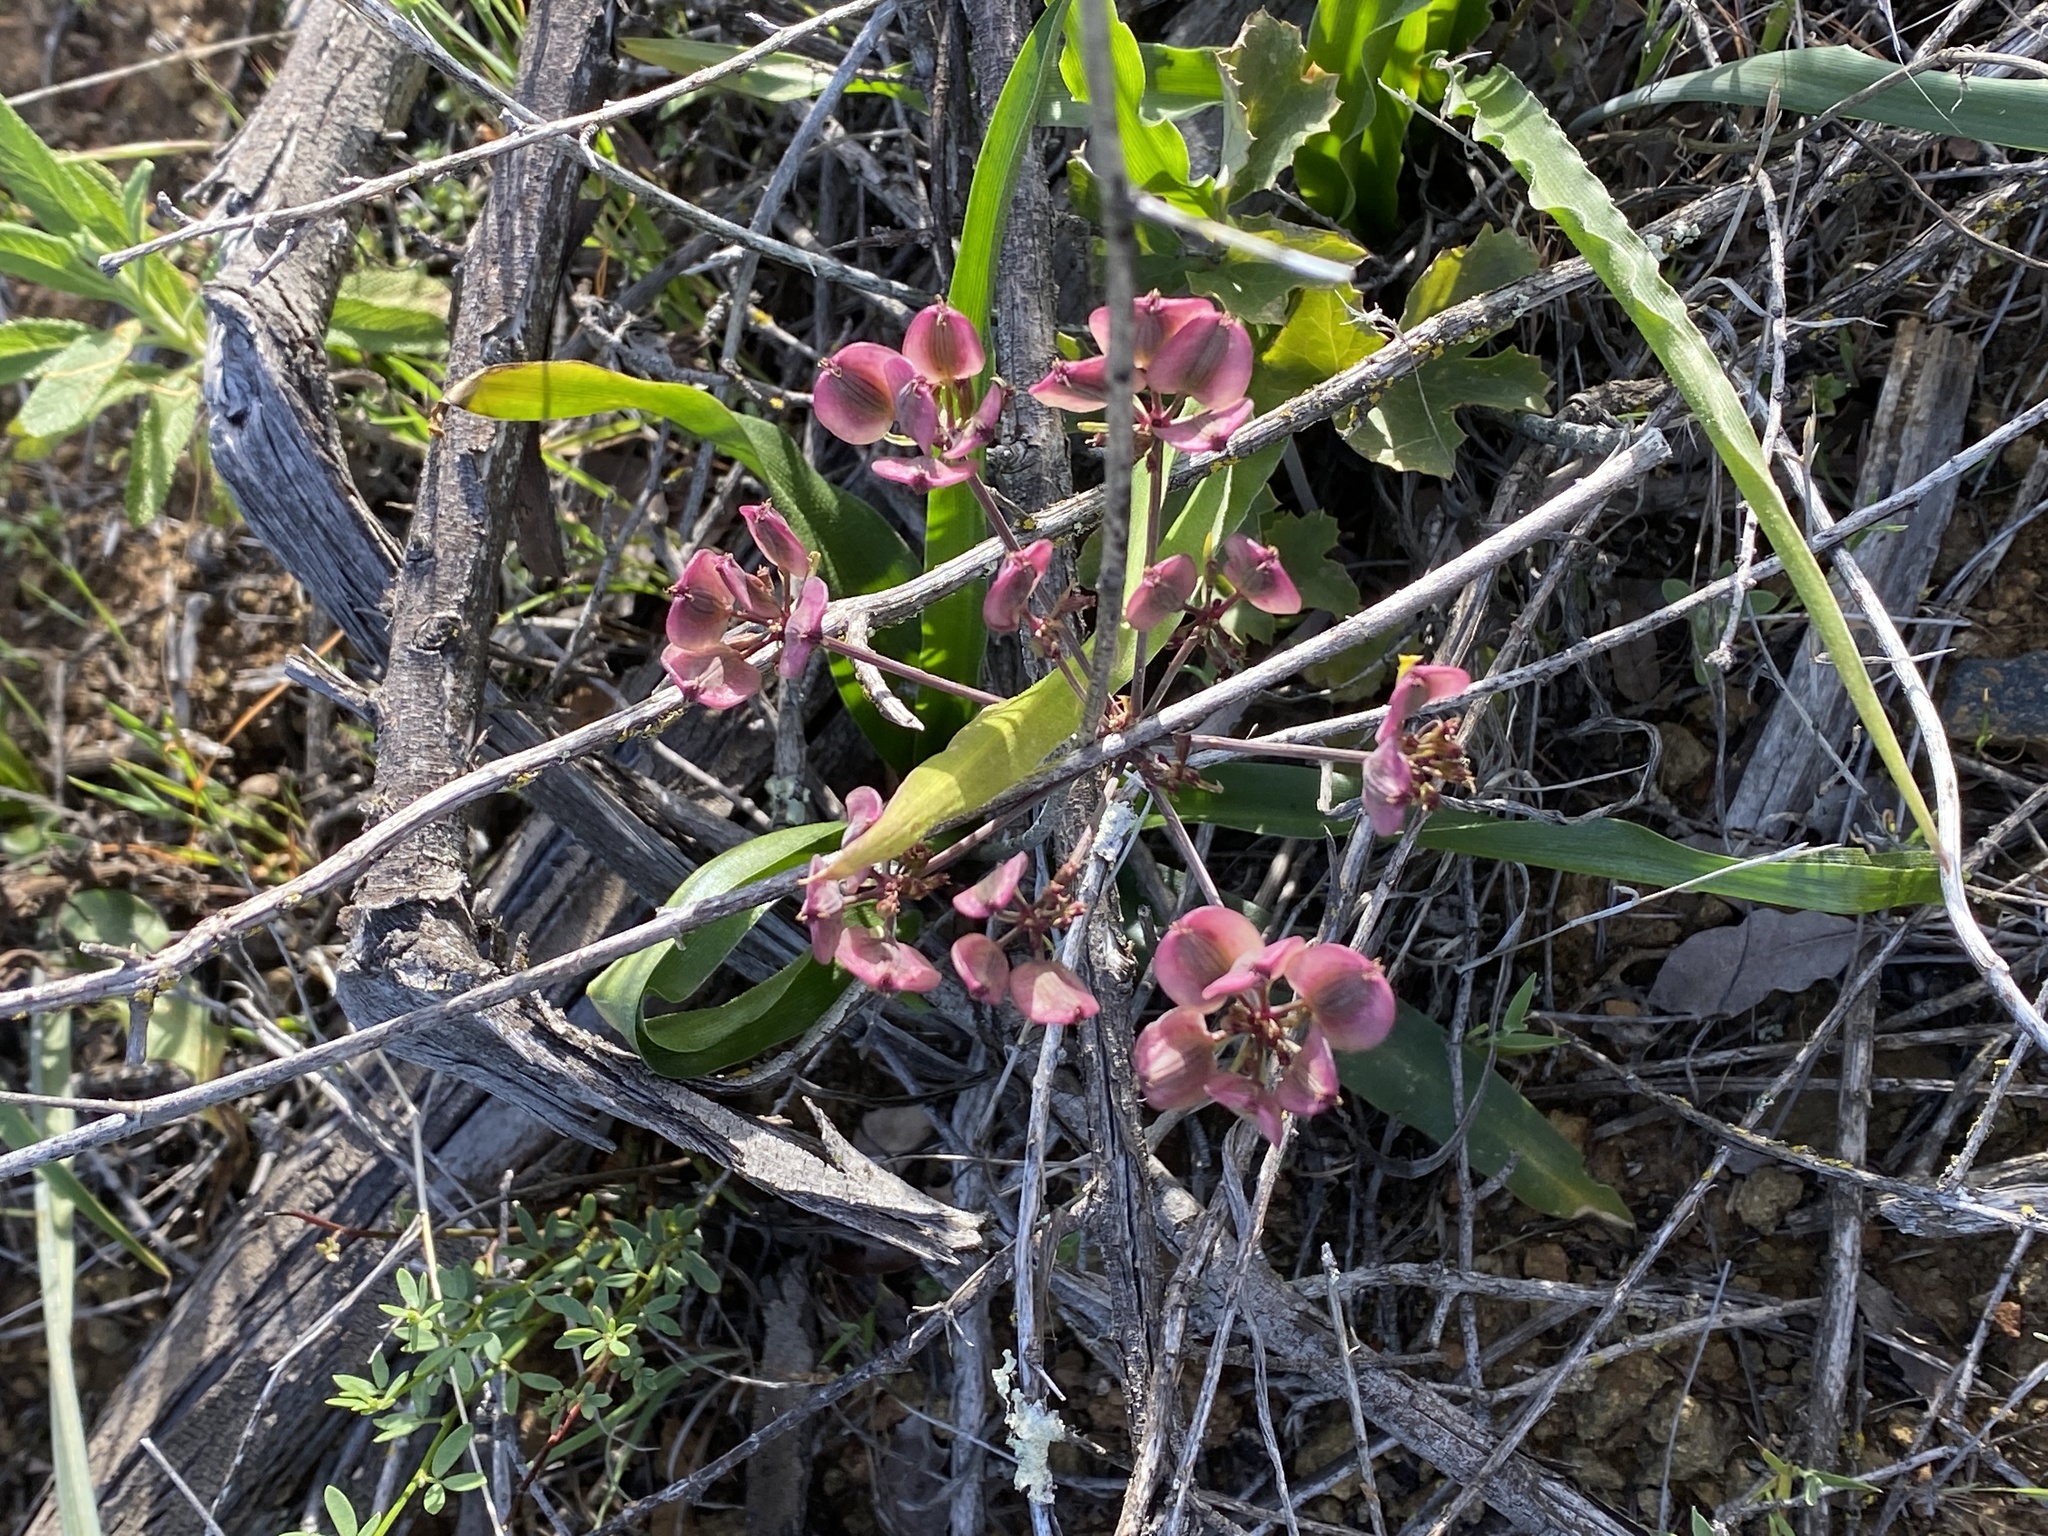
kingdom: Plantae
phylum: Tracheophyta
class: Magnoliopsida
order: Apiales
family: Apiaceae
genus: Lomatium
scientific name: Lomatium lucidum
